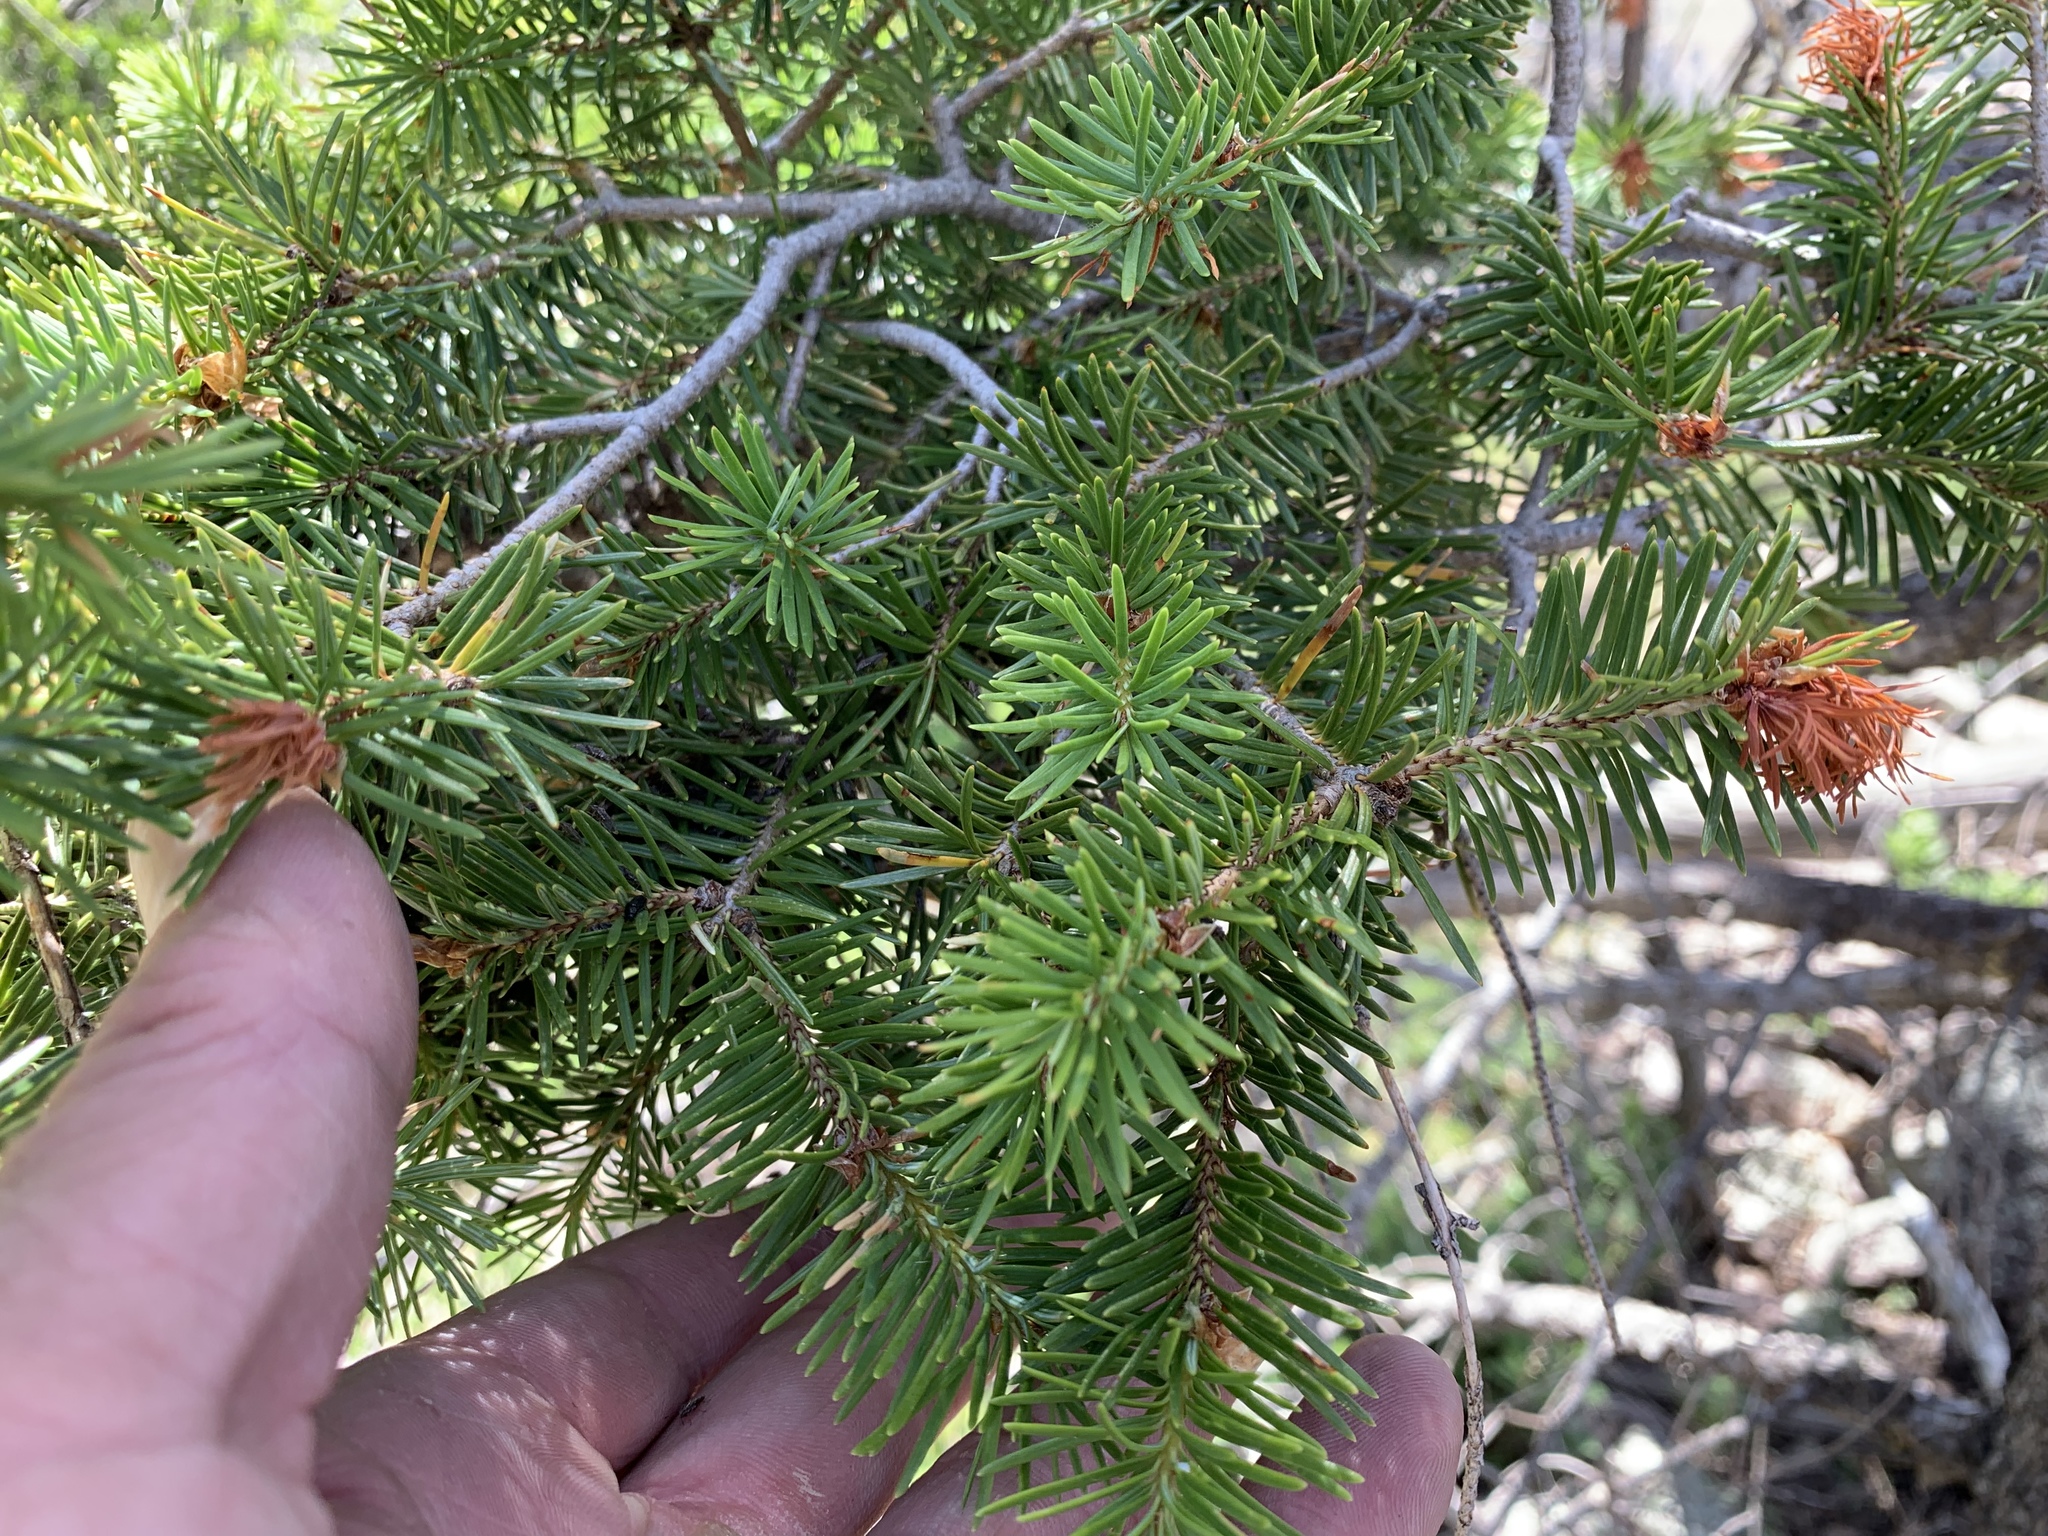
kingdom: Plantae
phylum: Tracheophyta
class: Pinopsida
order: Pinales
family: Pinaceae
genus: Pseudotsuga
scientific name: Pseudotsuga menziesii
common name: Douglas fir
